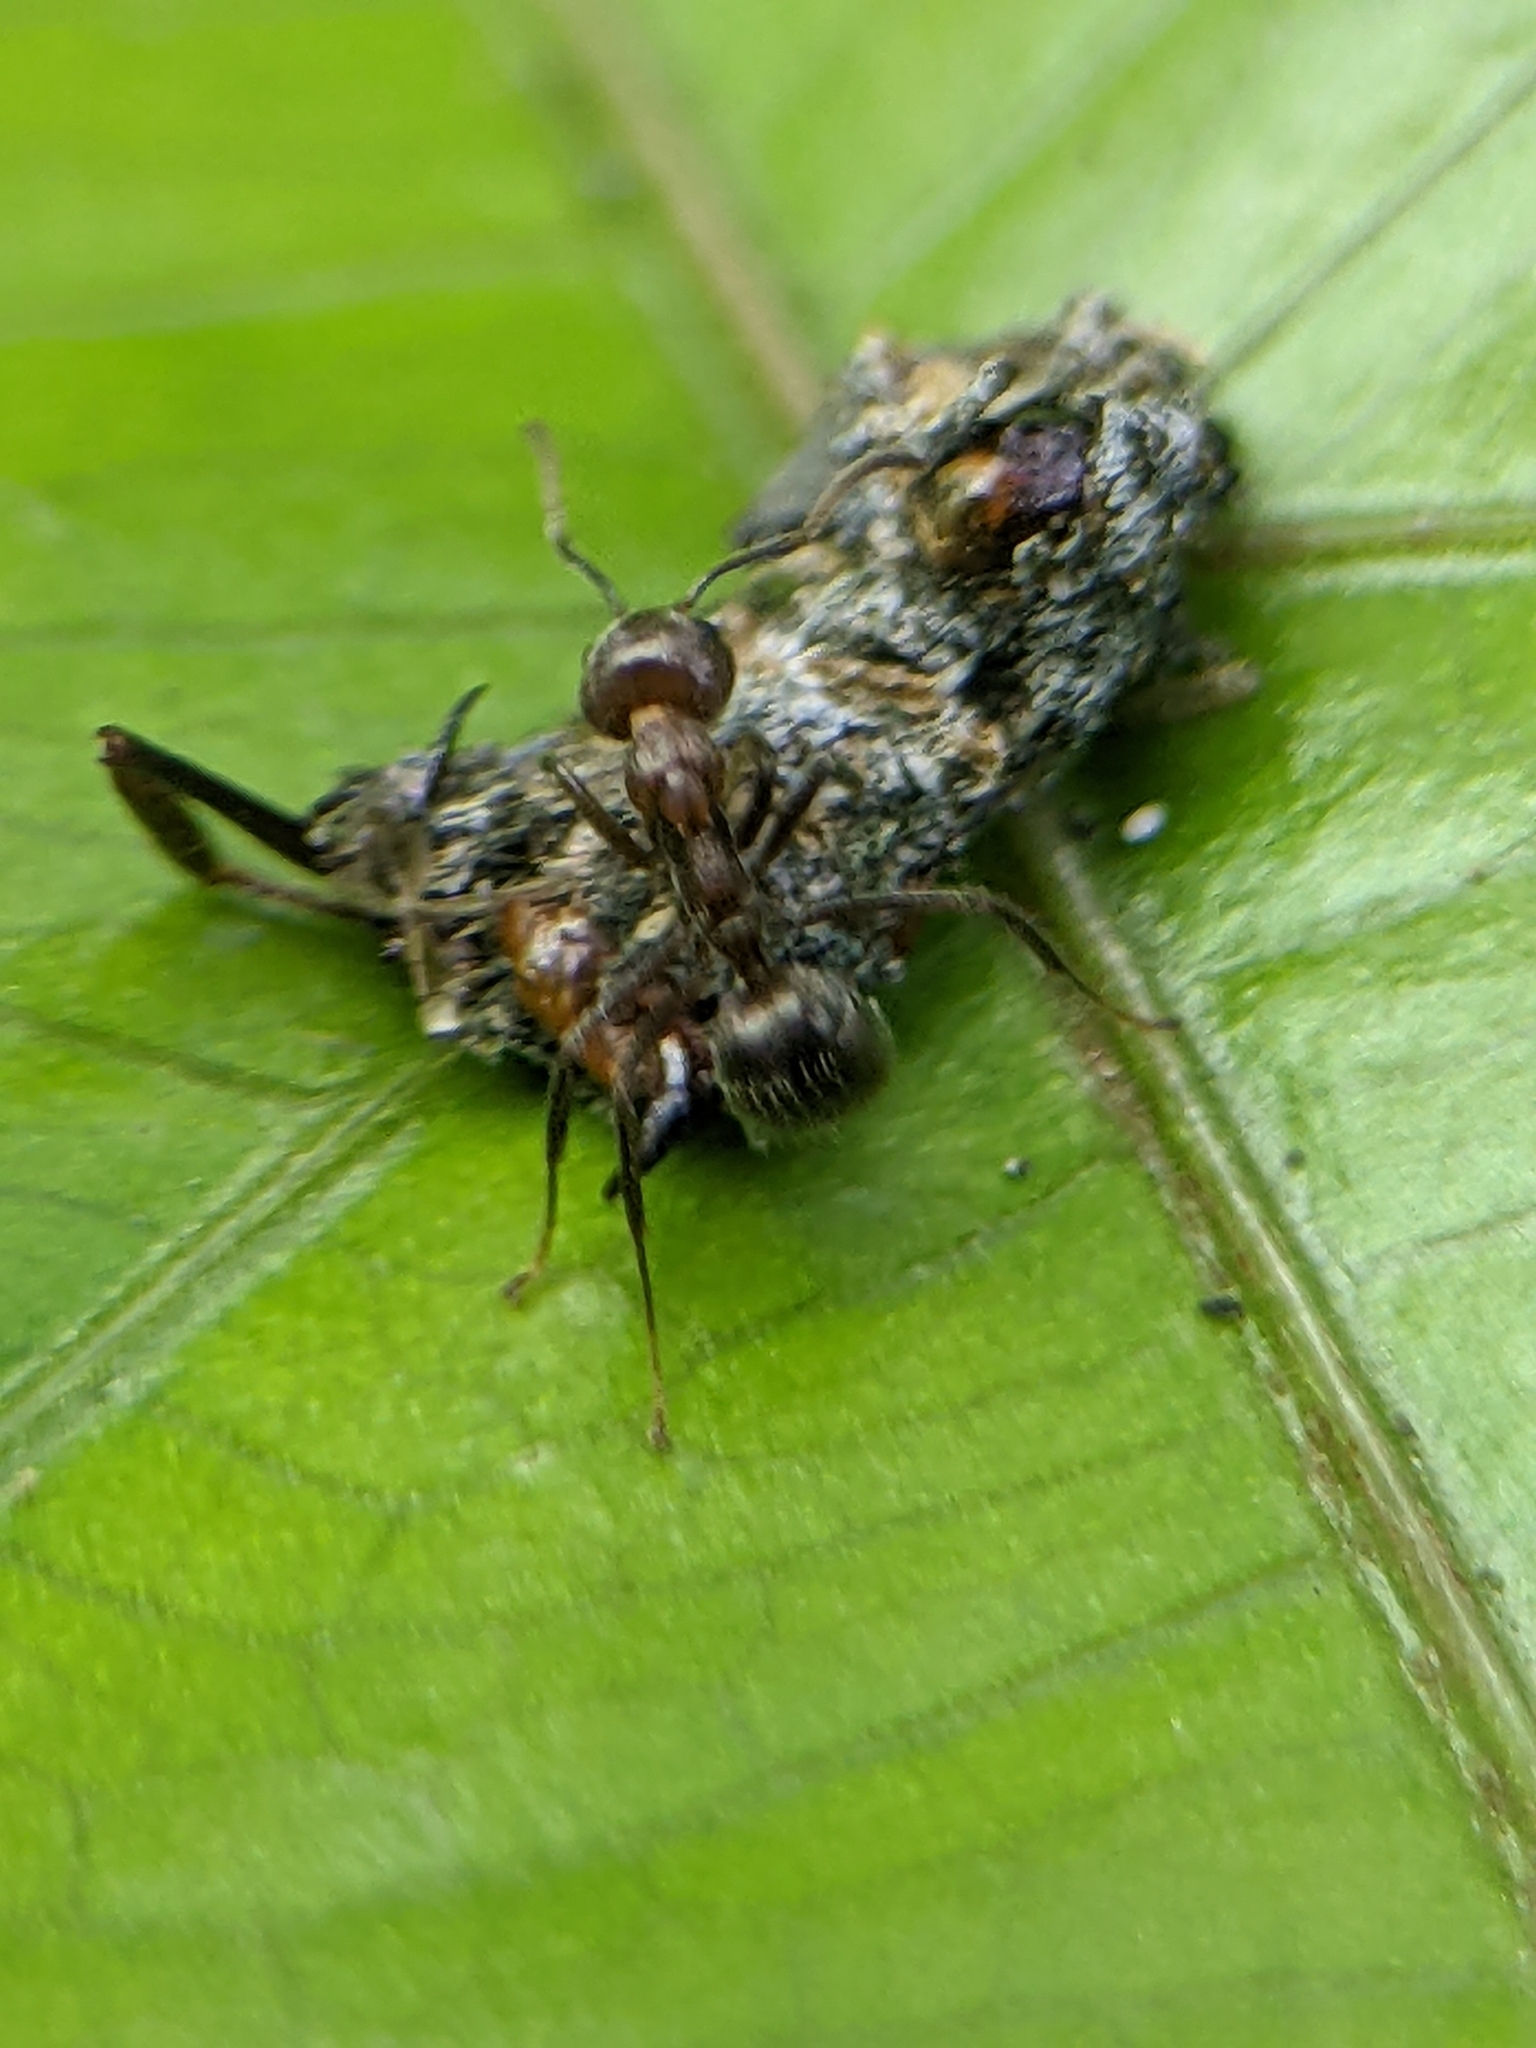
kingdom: Animalia
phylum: Arthropoda
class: Insecta
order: Hymenoptera
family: Formicidae
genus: Dolichoderus
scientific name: Dolichoderus thoracicus
